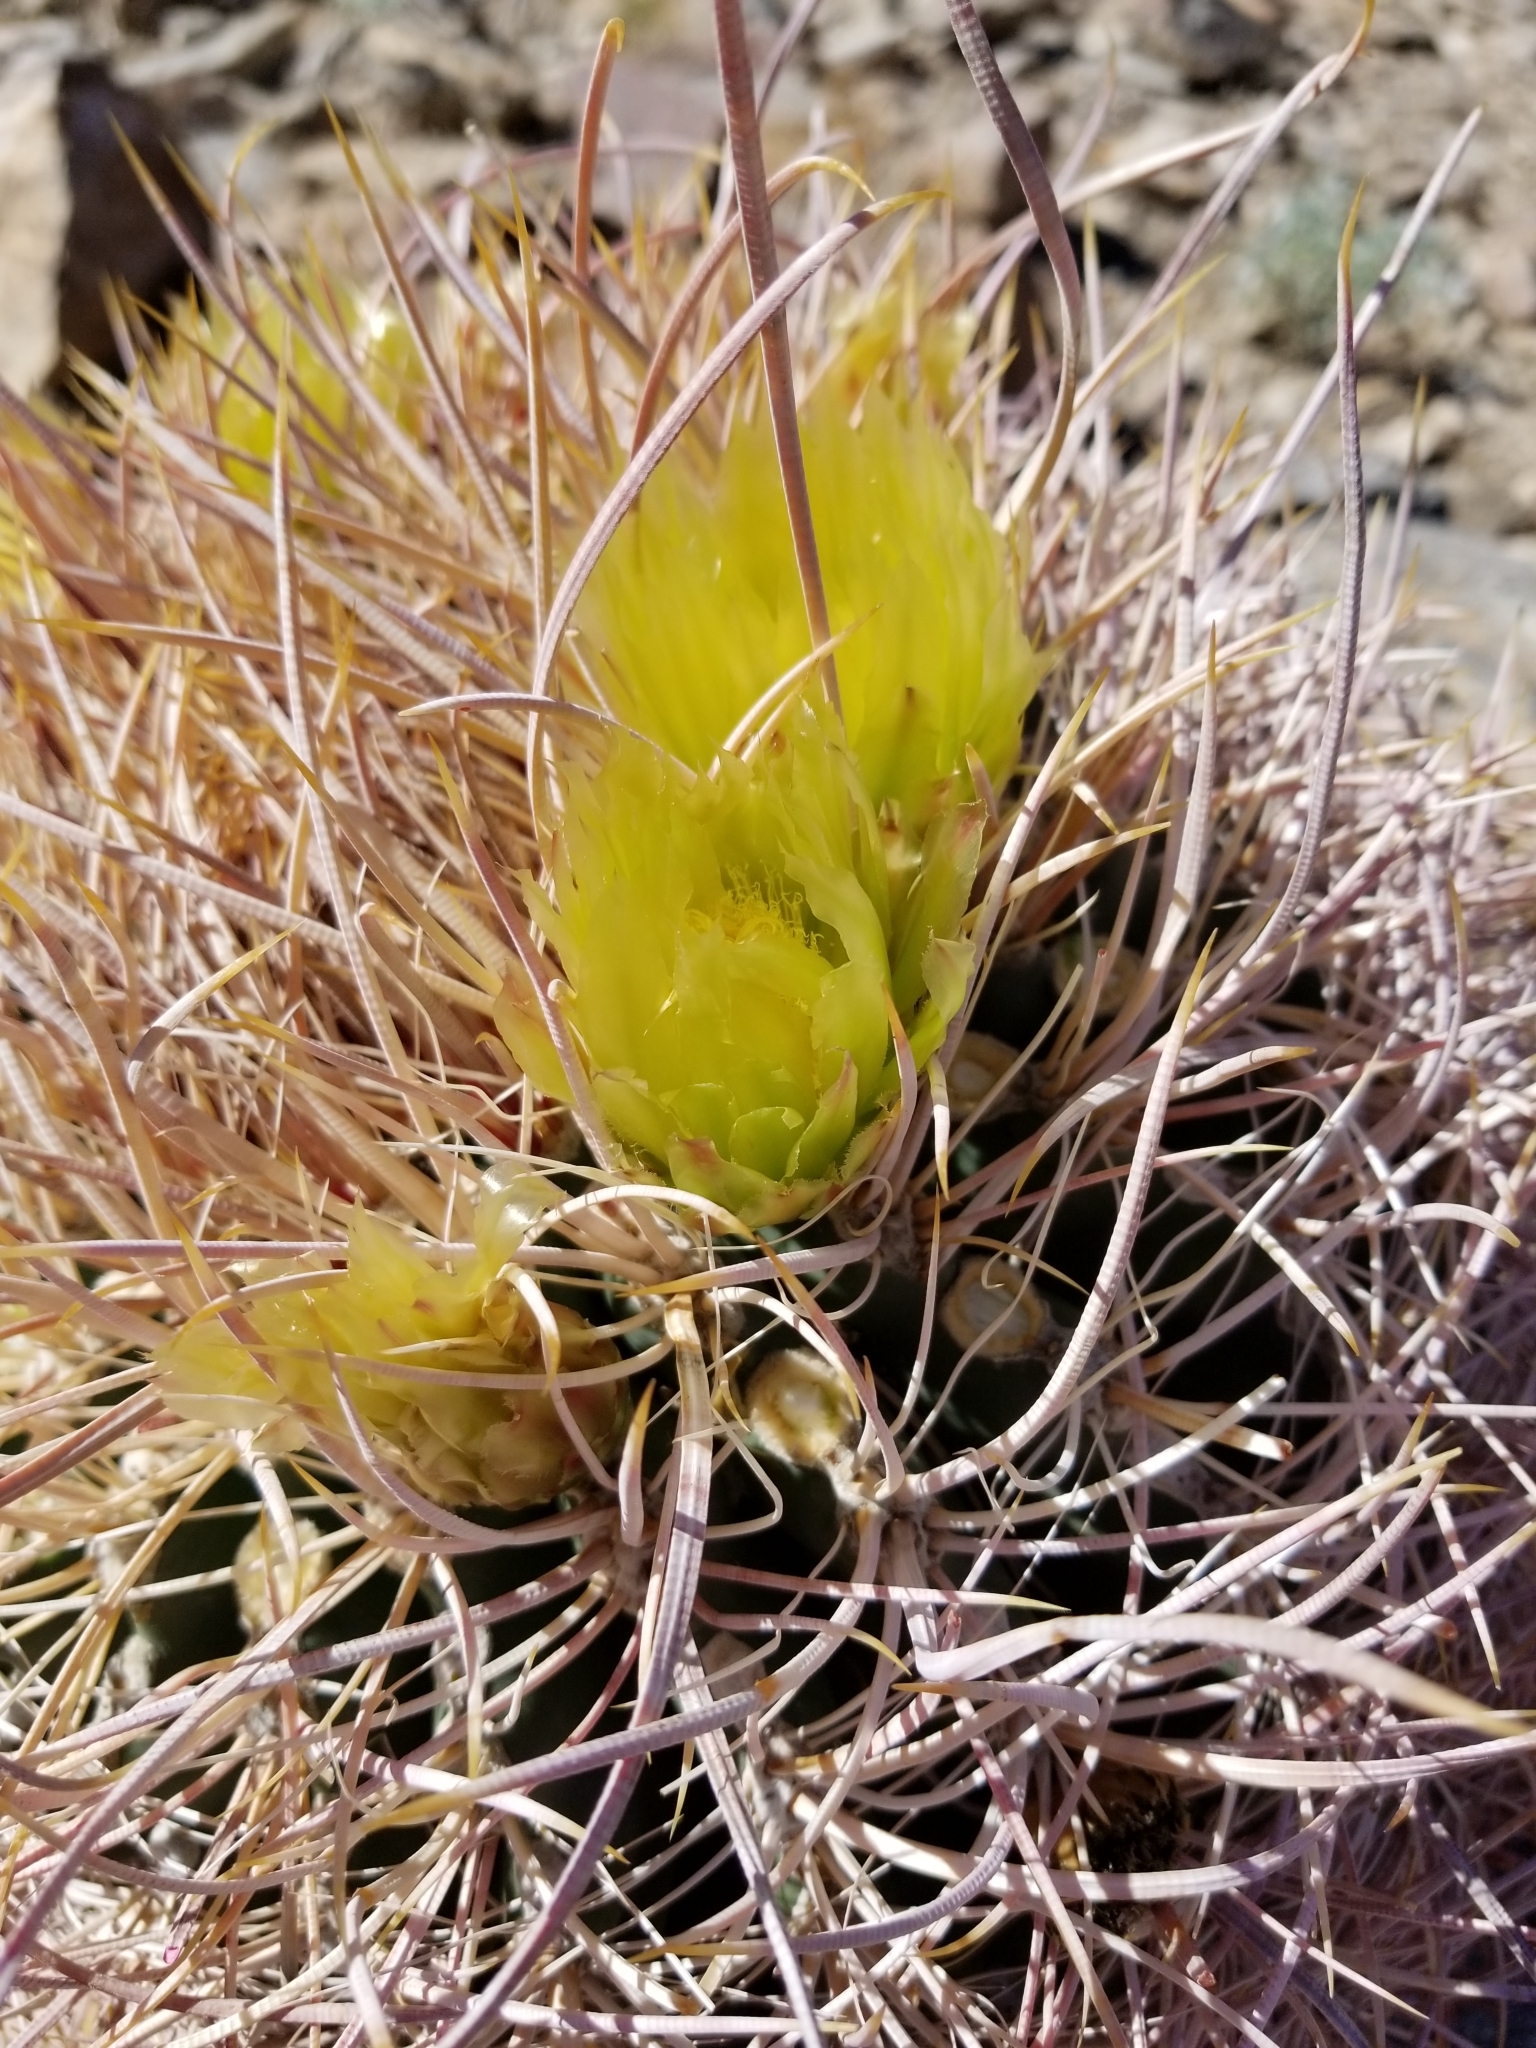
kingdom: Plantae
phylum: Tracheophyta
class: Magnoliopsida
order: Caryophyllales
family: Cactaceae
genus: Ferocactus
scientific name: Ferocactus cylindraceus
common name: California barrel cactus
